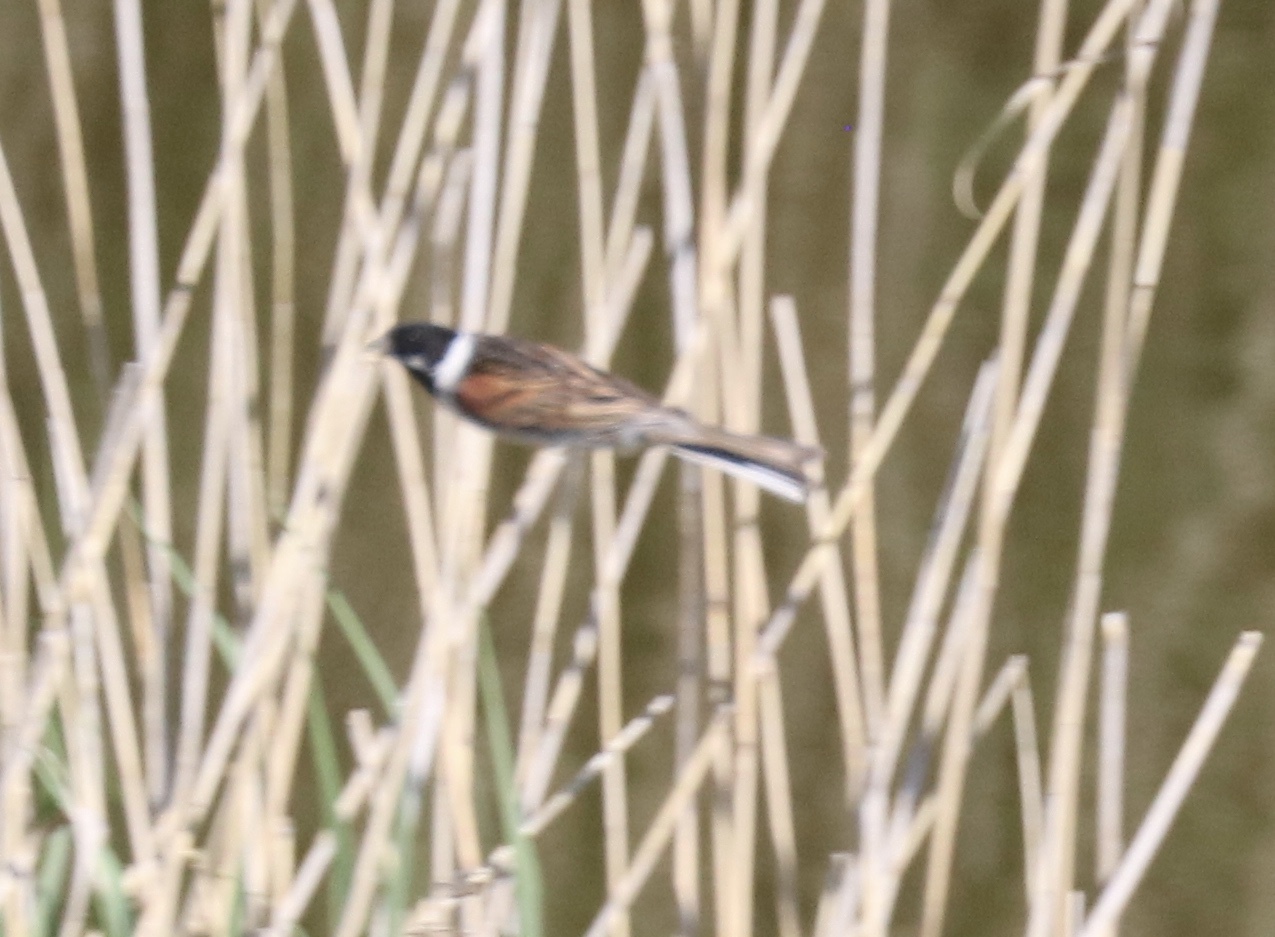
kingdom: Animalia
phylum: Chordata
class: Aves
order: Passeriformes
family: Emberizidae
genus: Emberiza
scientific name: Emberiza schoeniclus
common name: Reed bunting
